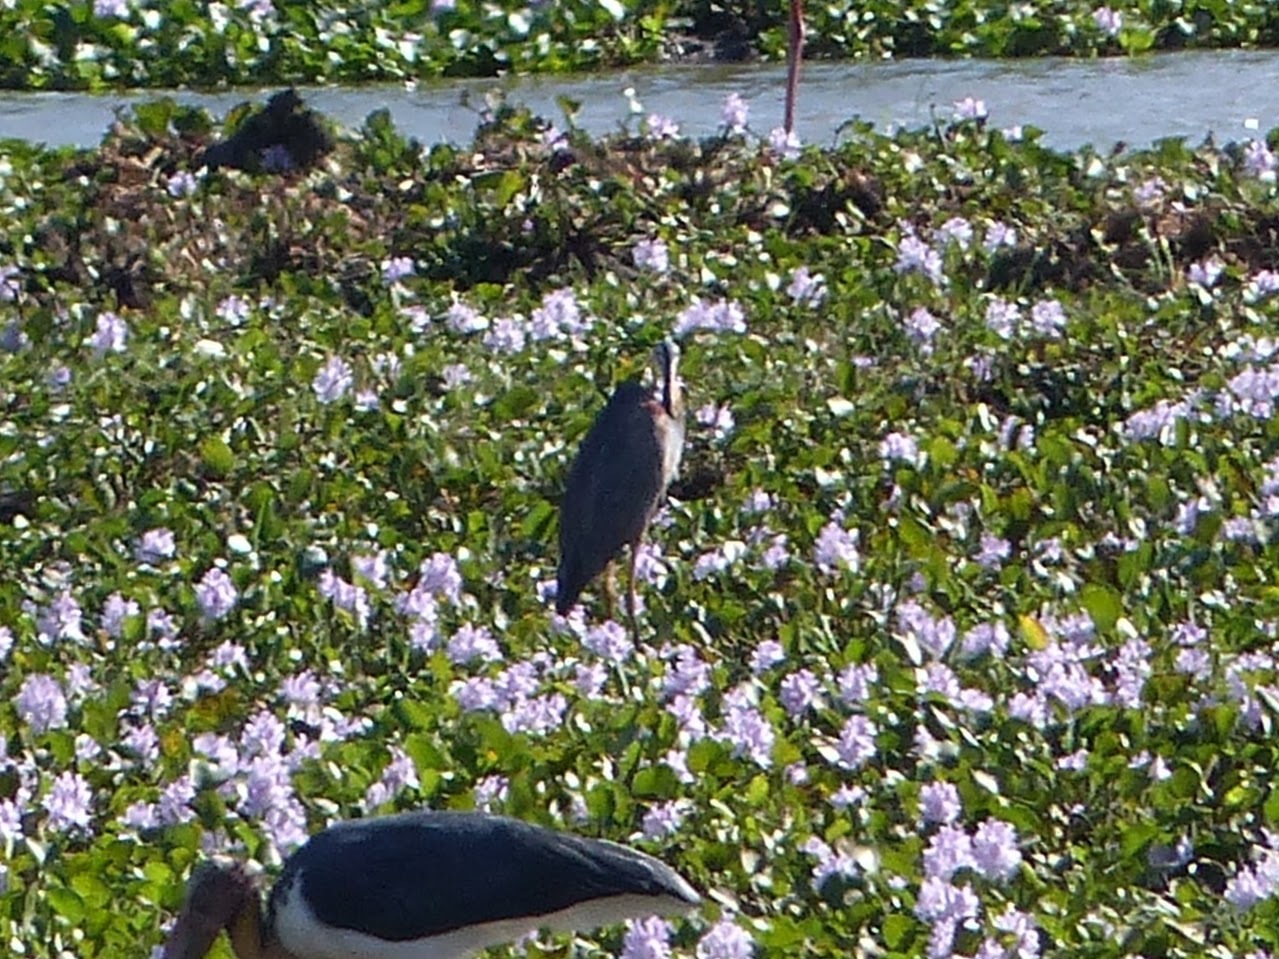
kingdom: Animalia
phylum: Chordata
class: Aves
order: Pelecaniformes
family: Ardeidae
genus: Ardea
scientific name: Ardea purpurea
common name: Purple heron
